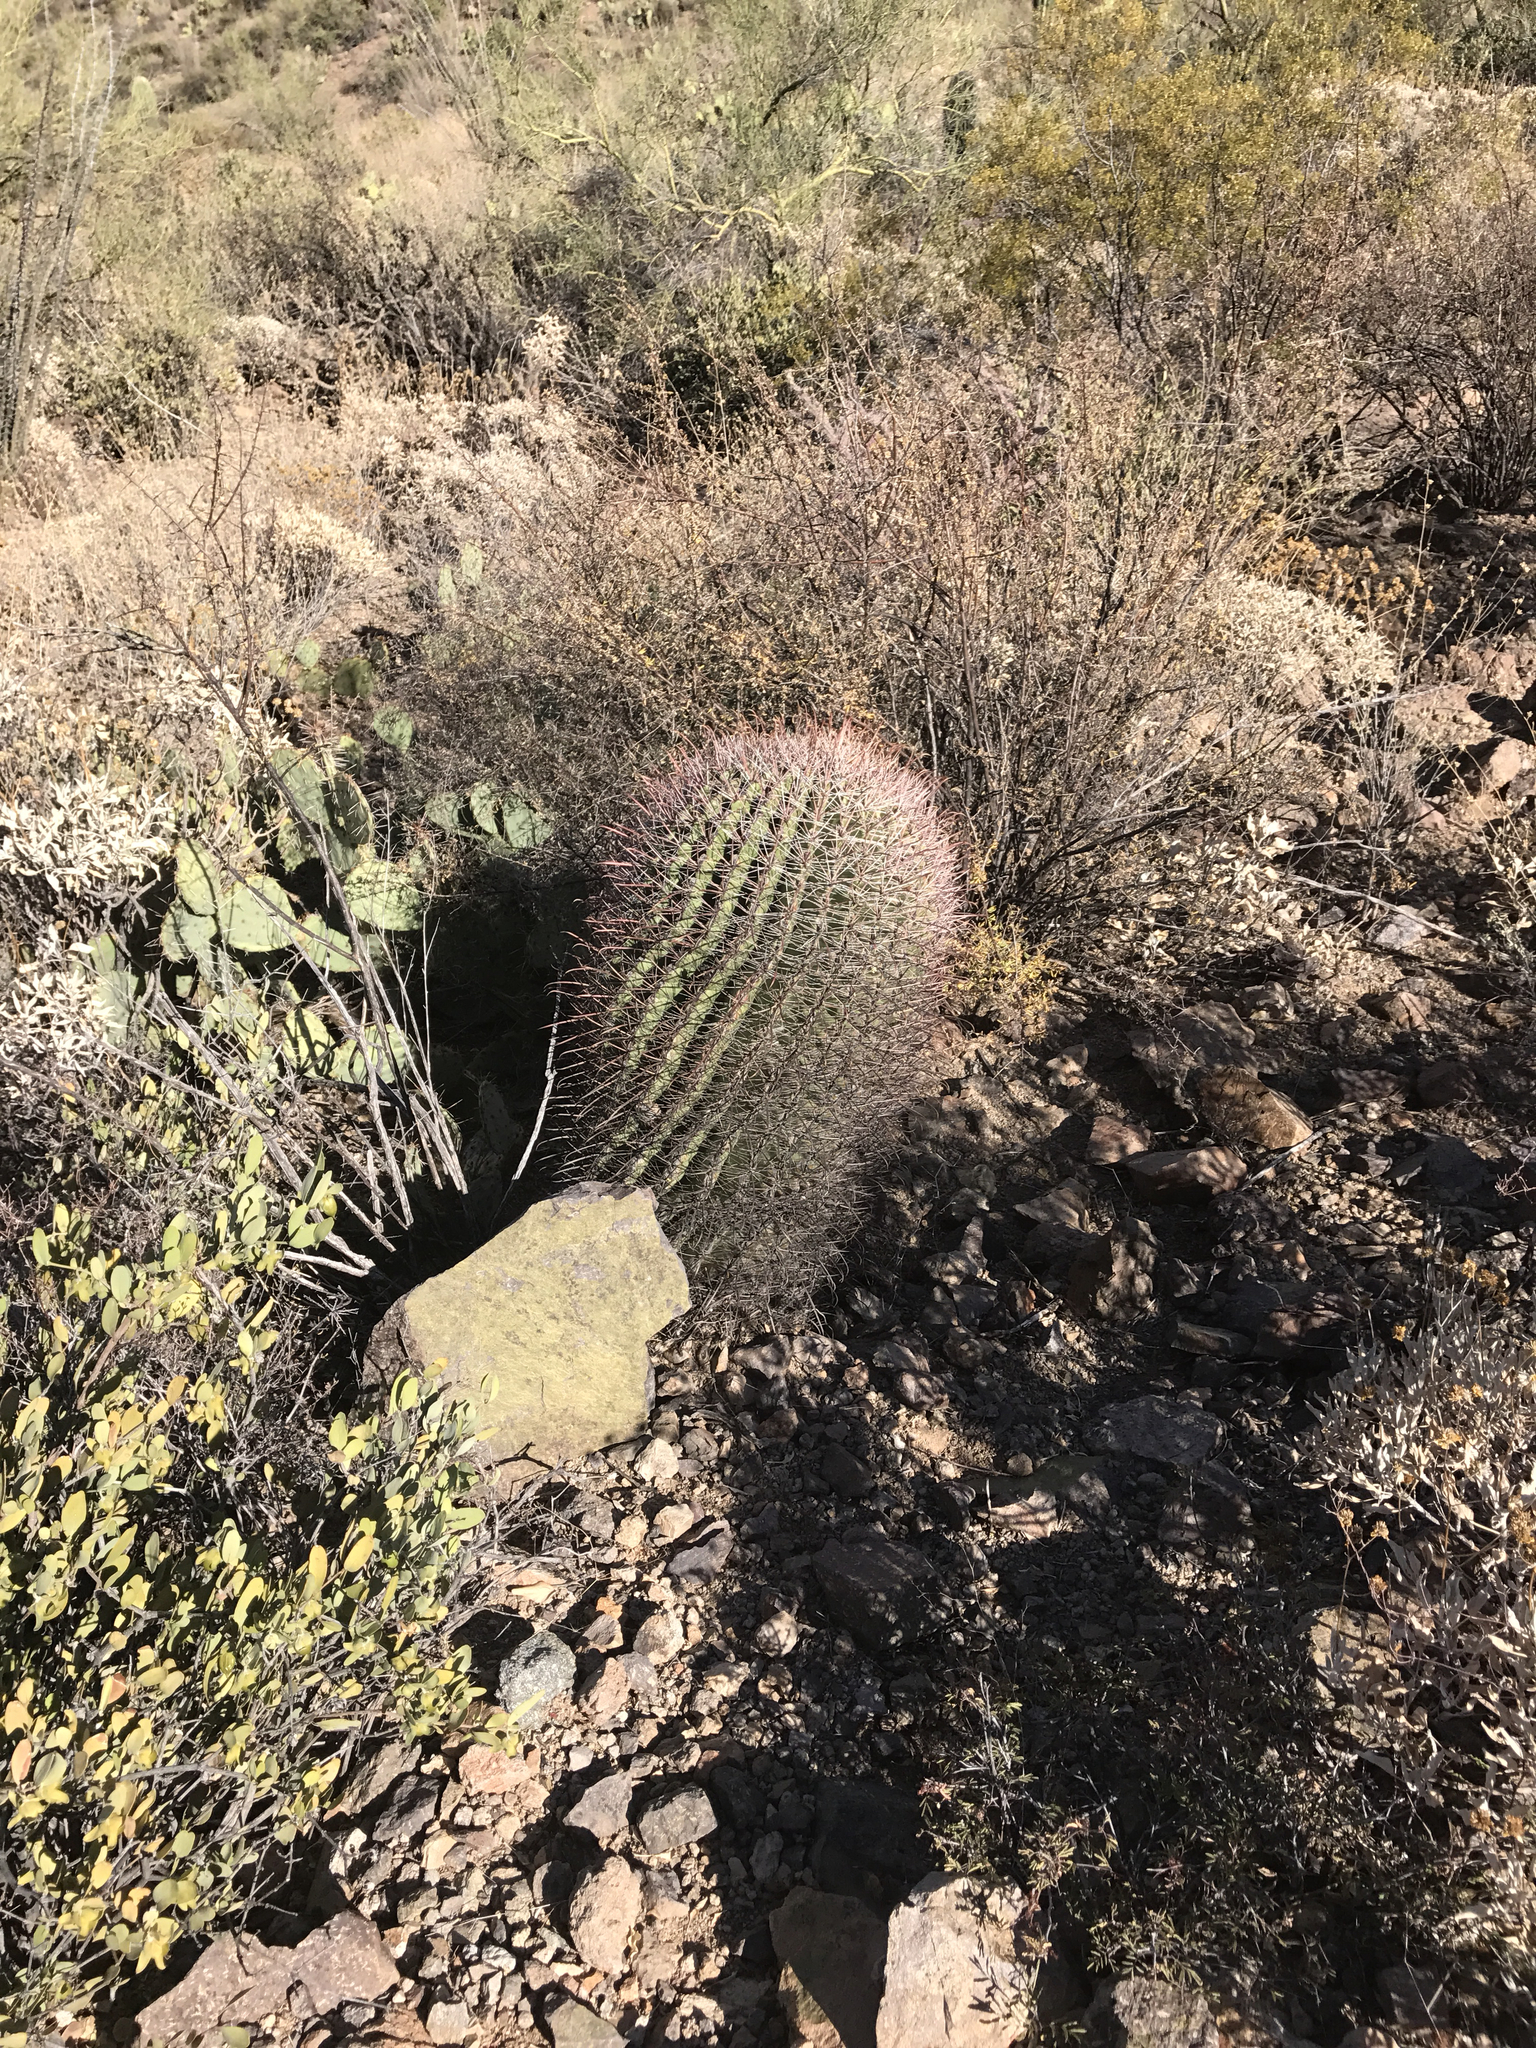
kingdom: Plantae
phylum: Tracheophyta
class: Magnoliopsida
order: Caryophyllales
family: Cactaceae
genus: Ferocactus
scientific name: Ferocactus wislizeni
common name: Candy barrel cactus
